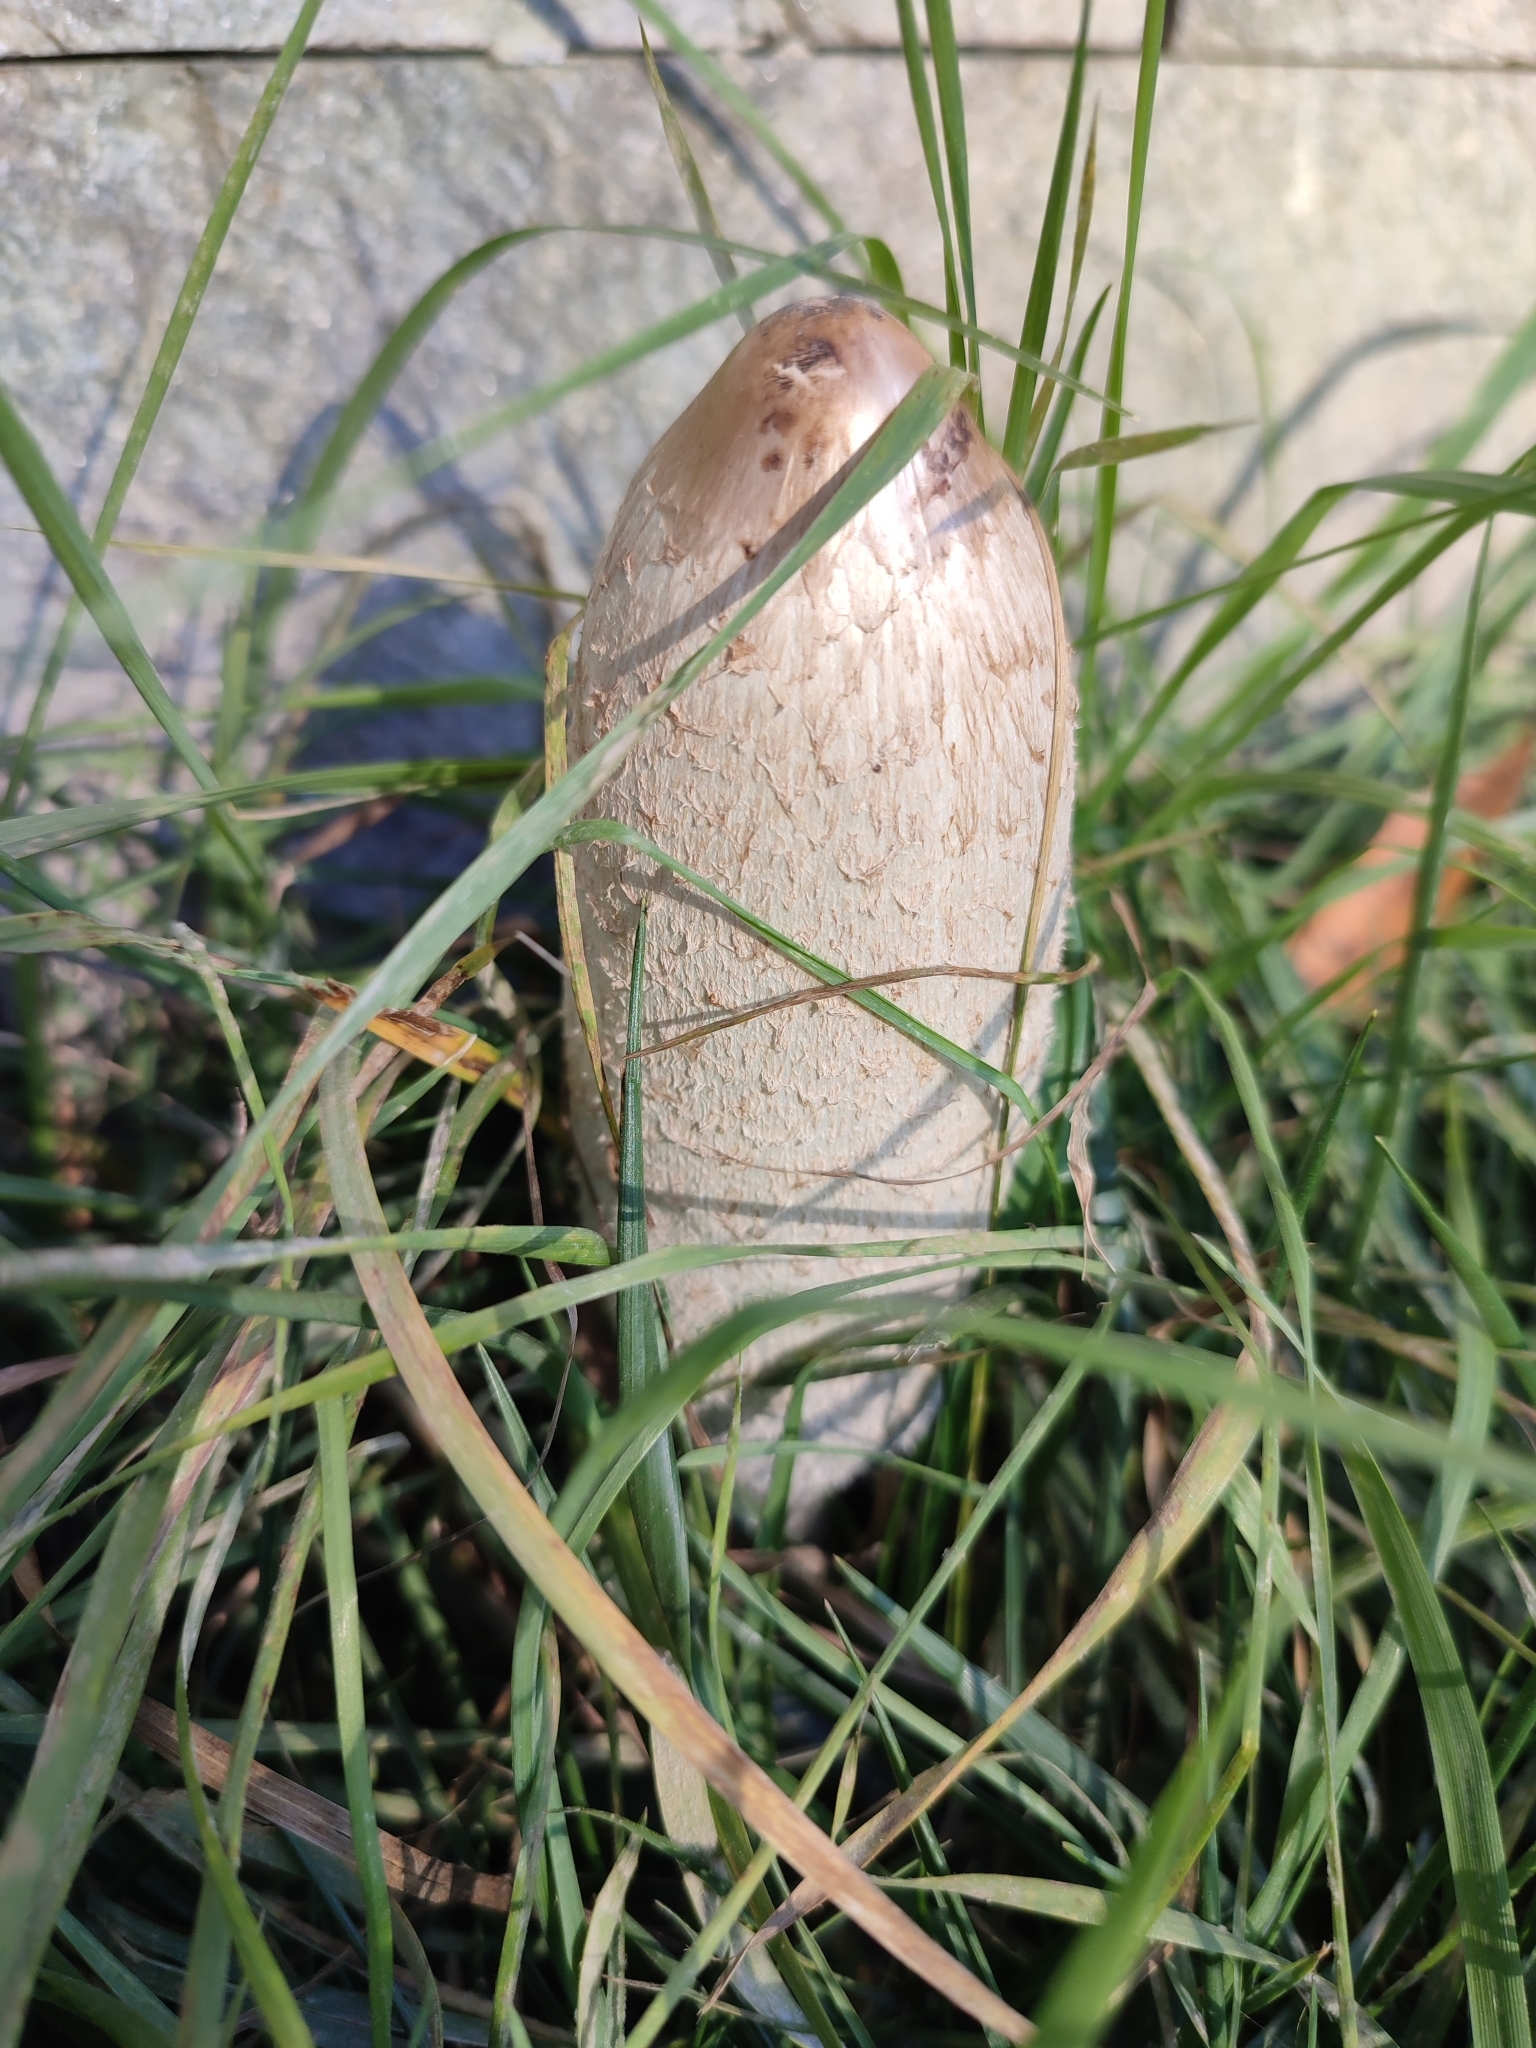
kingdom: Fungi
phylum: Basidiomycota
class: Agaricomycetes
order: Agaricales
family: Agaricaceae
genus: Coprinus
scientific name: Coprinus comatus
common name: Lawyer's wig
